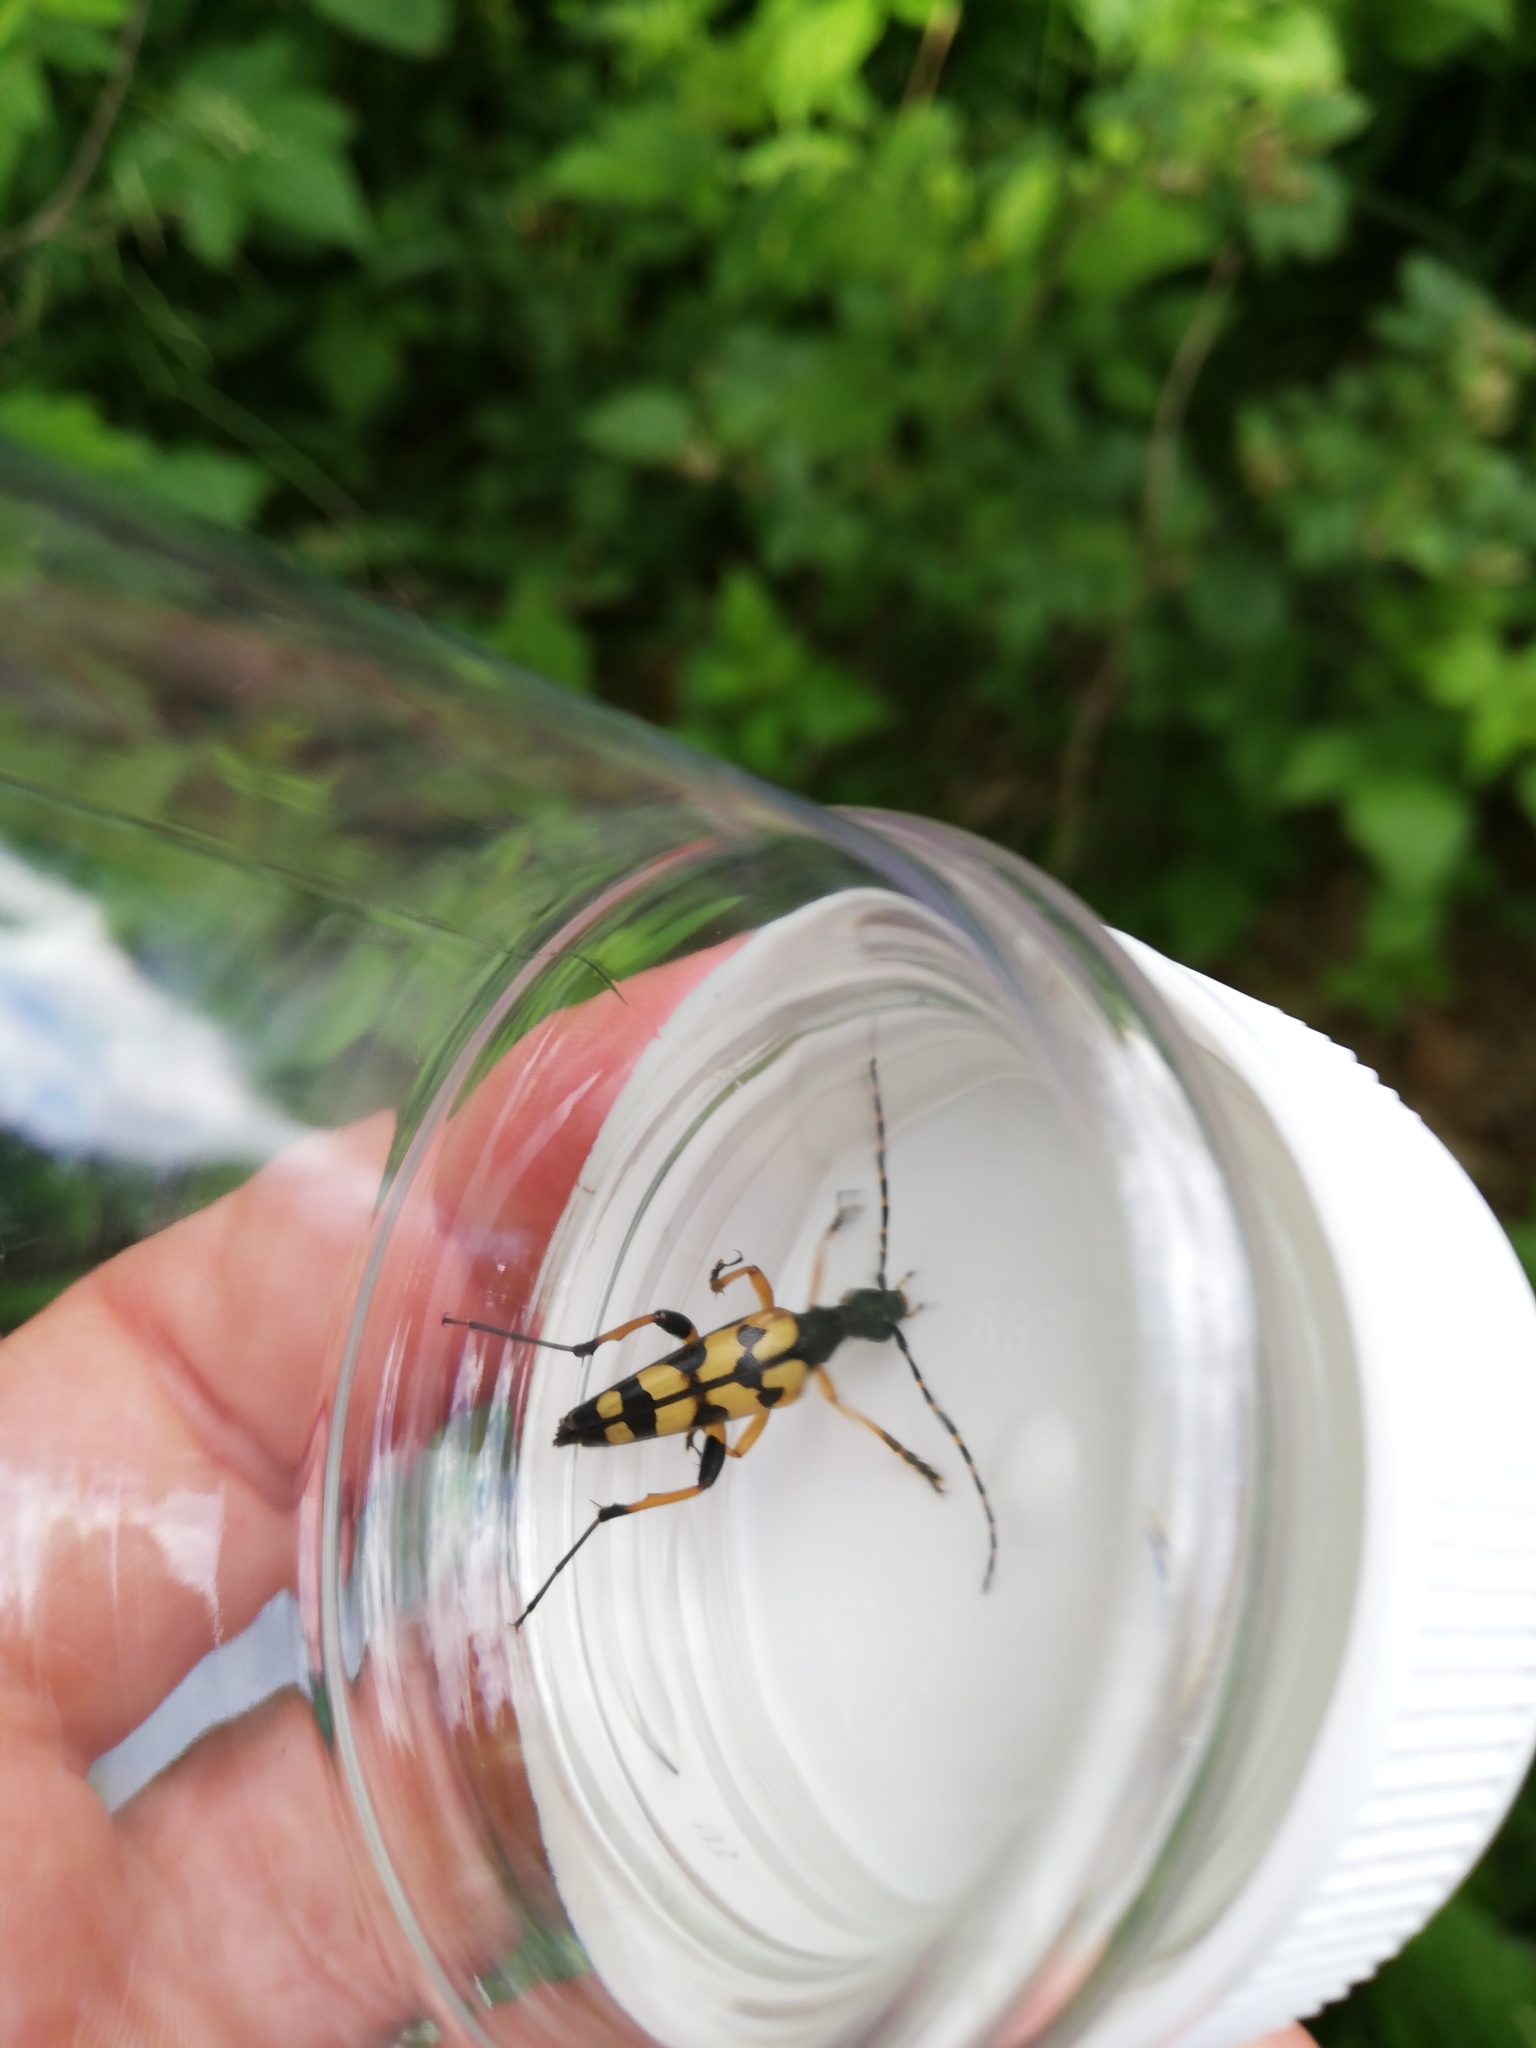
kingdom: Animalia
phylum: Arthropoda
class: Insecta
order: Coleoptera
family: Cerambycidae
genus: Rutpela
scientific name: Rutpela maculata
